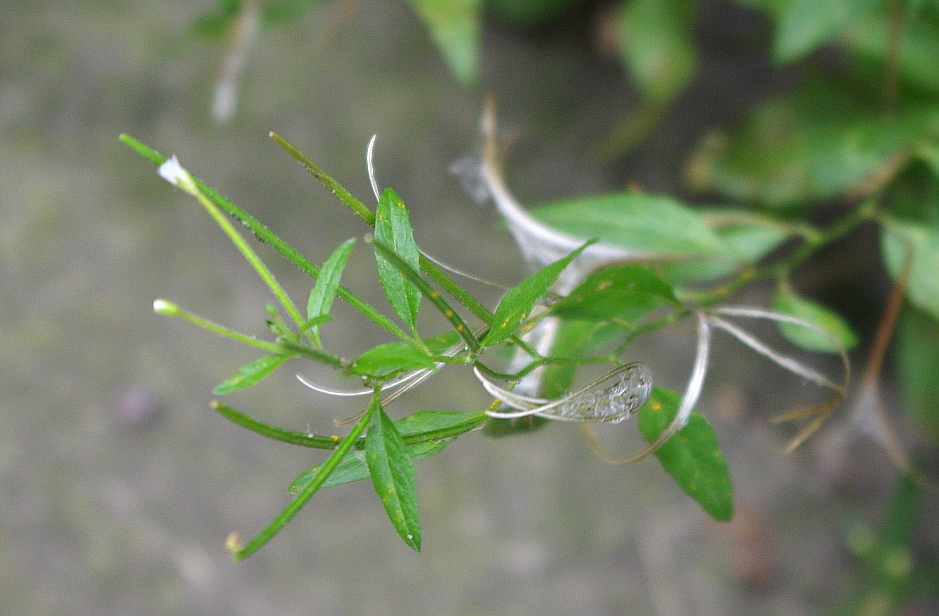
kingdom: Plantae
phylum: Tracheophyta
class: Magnoliopsida
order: Myrtales
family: Onagraceae
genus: Epilobium
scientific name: Epilobium pseudorubescens
